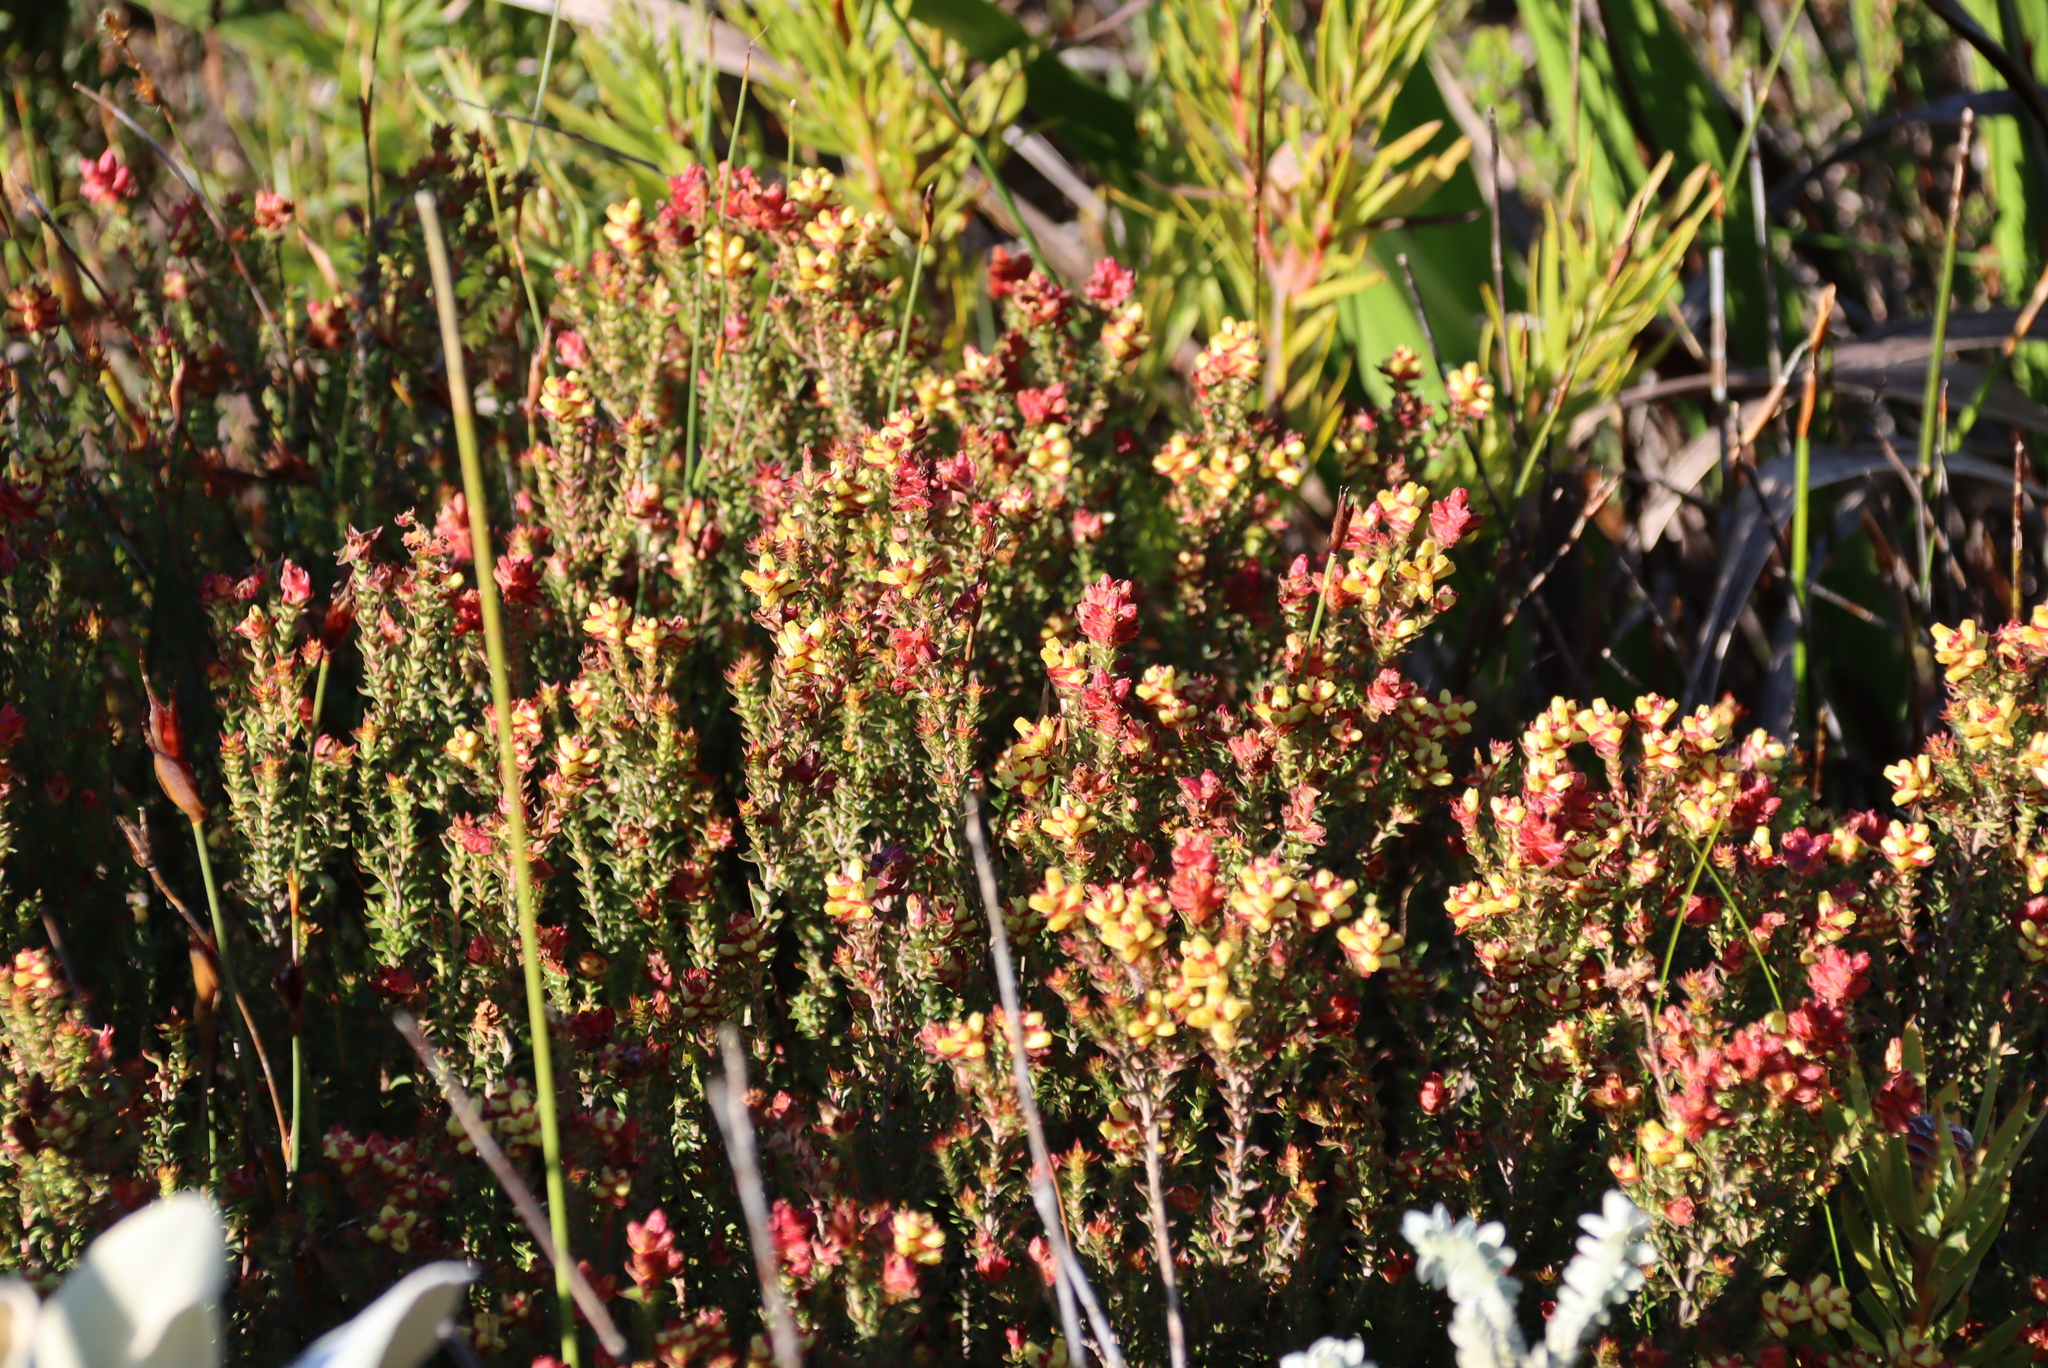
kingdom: Plantae
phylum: Tracheophyta
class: Magnoliopsida
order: Myrtales
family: Penaeaceae
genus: Penaea
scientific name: Penaea mucronata
